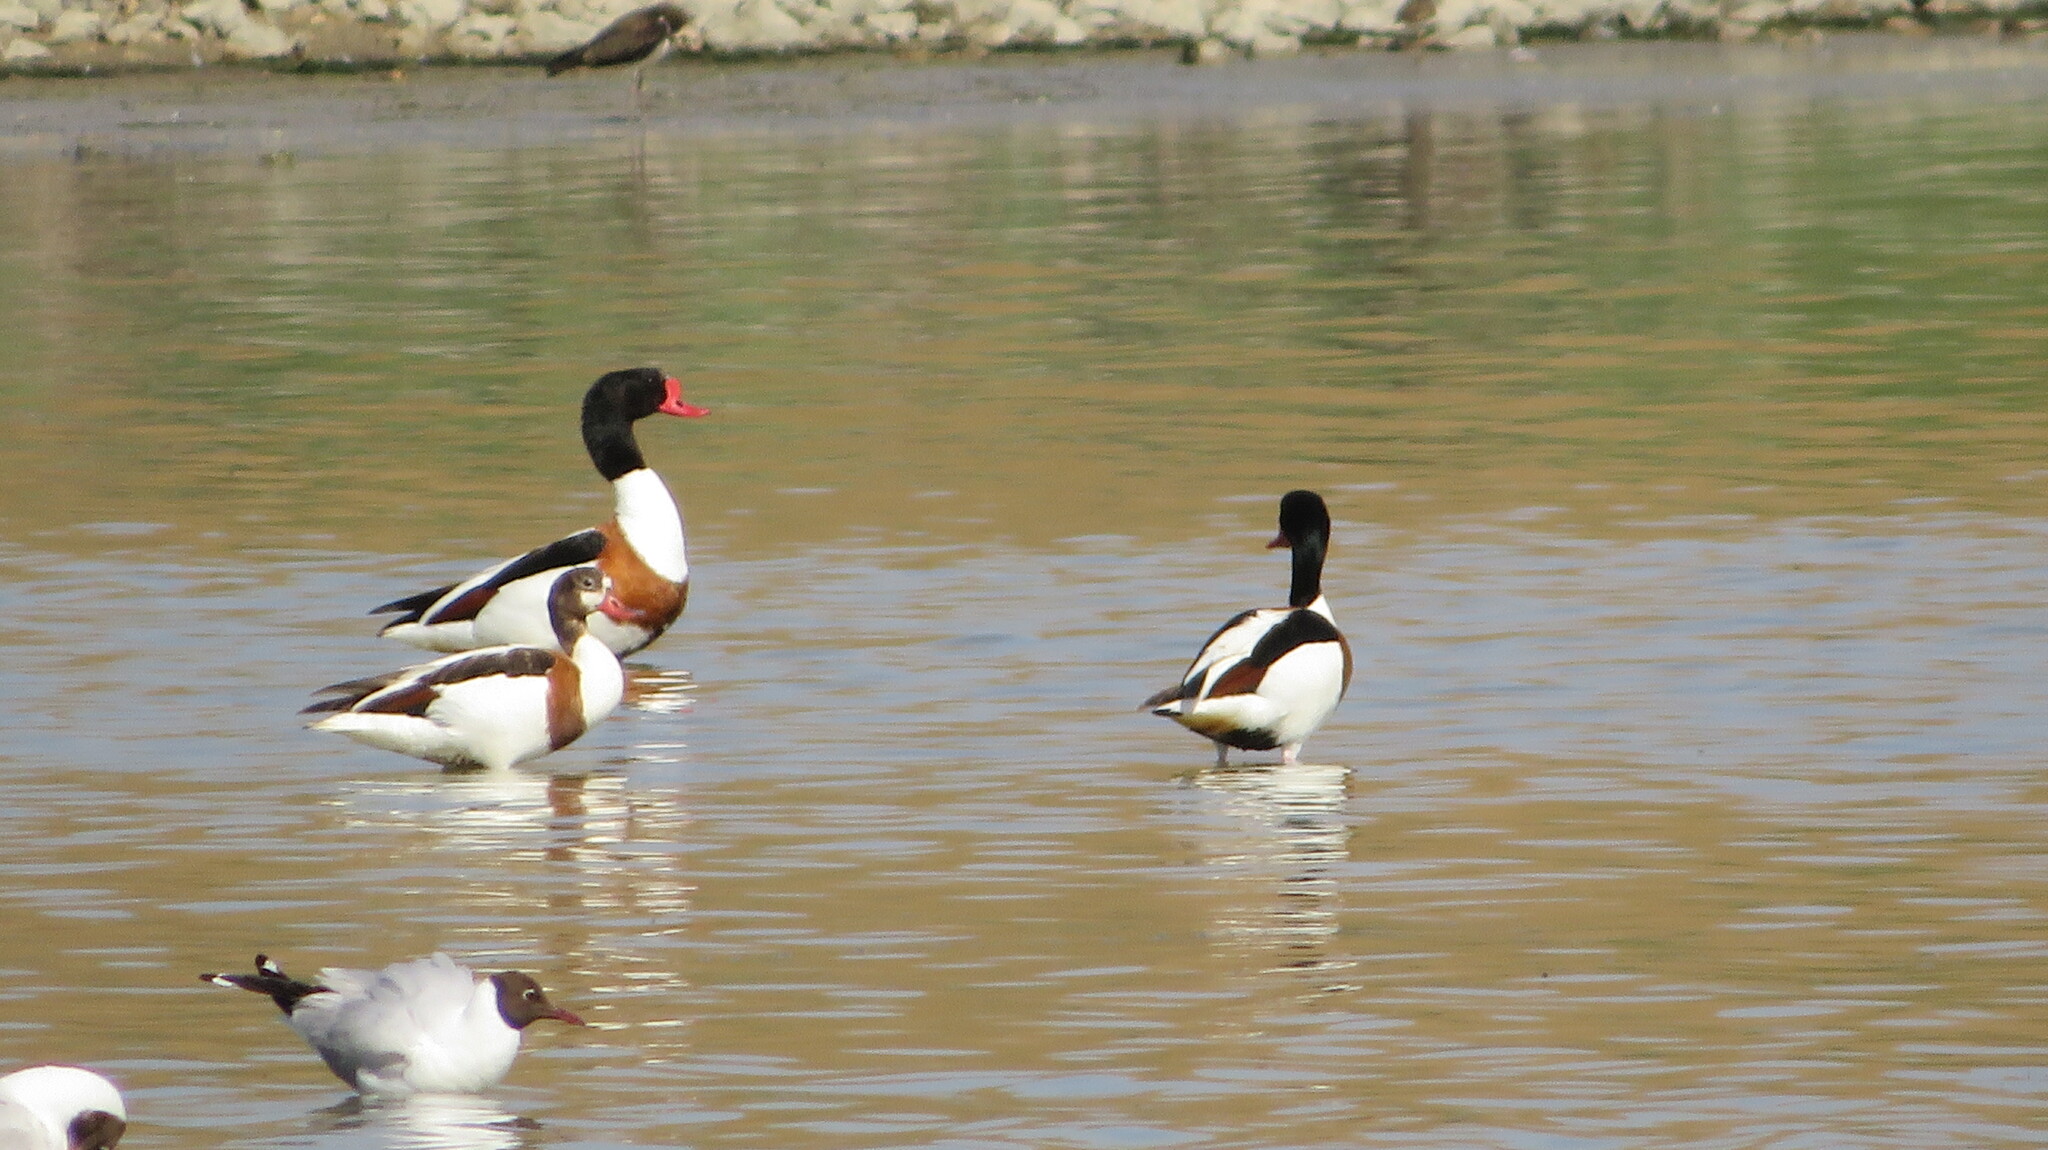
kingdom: Animalia
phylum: Chordata
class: Aves
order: Anseriformes
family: Anatidae
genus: Tadorna
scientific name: Tadorna tadorna
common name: Common shelduck
